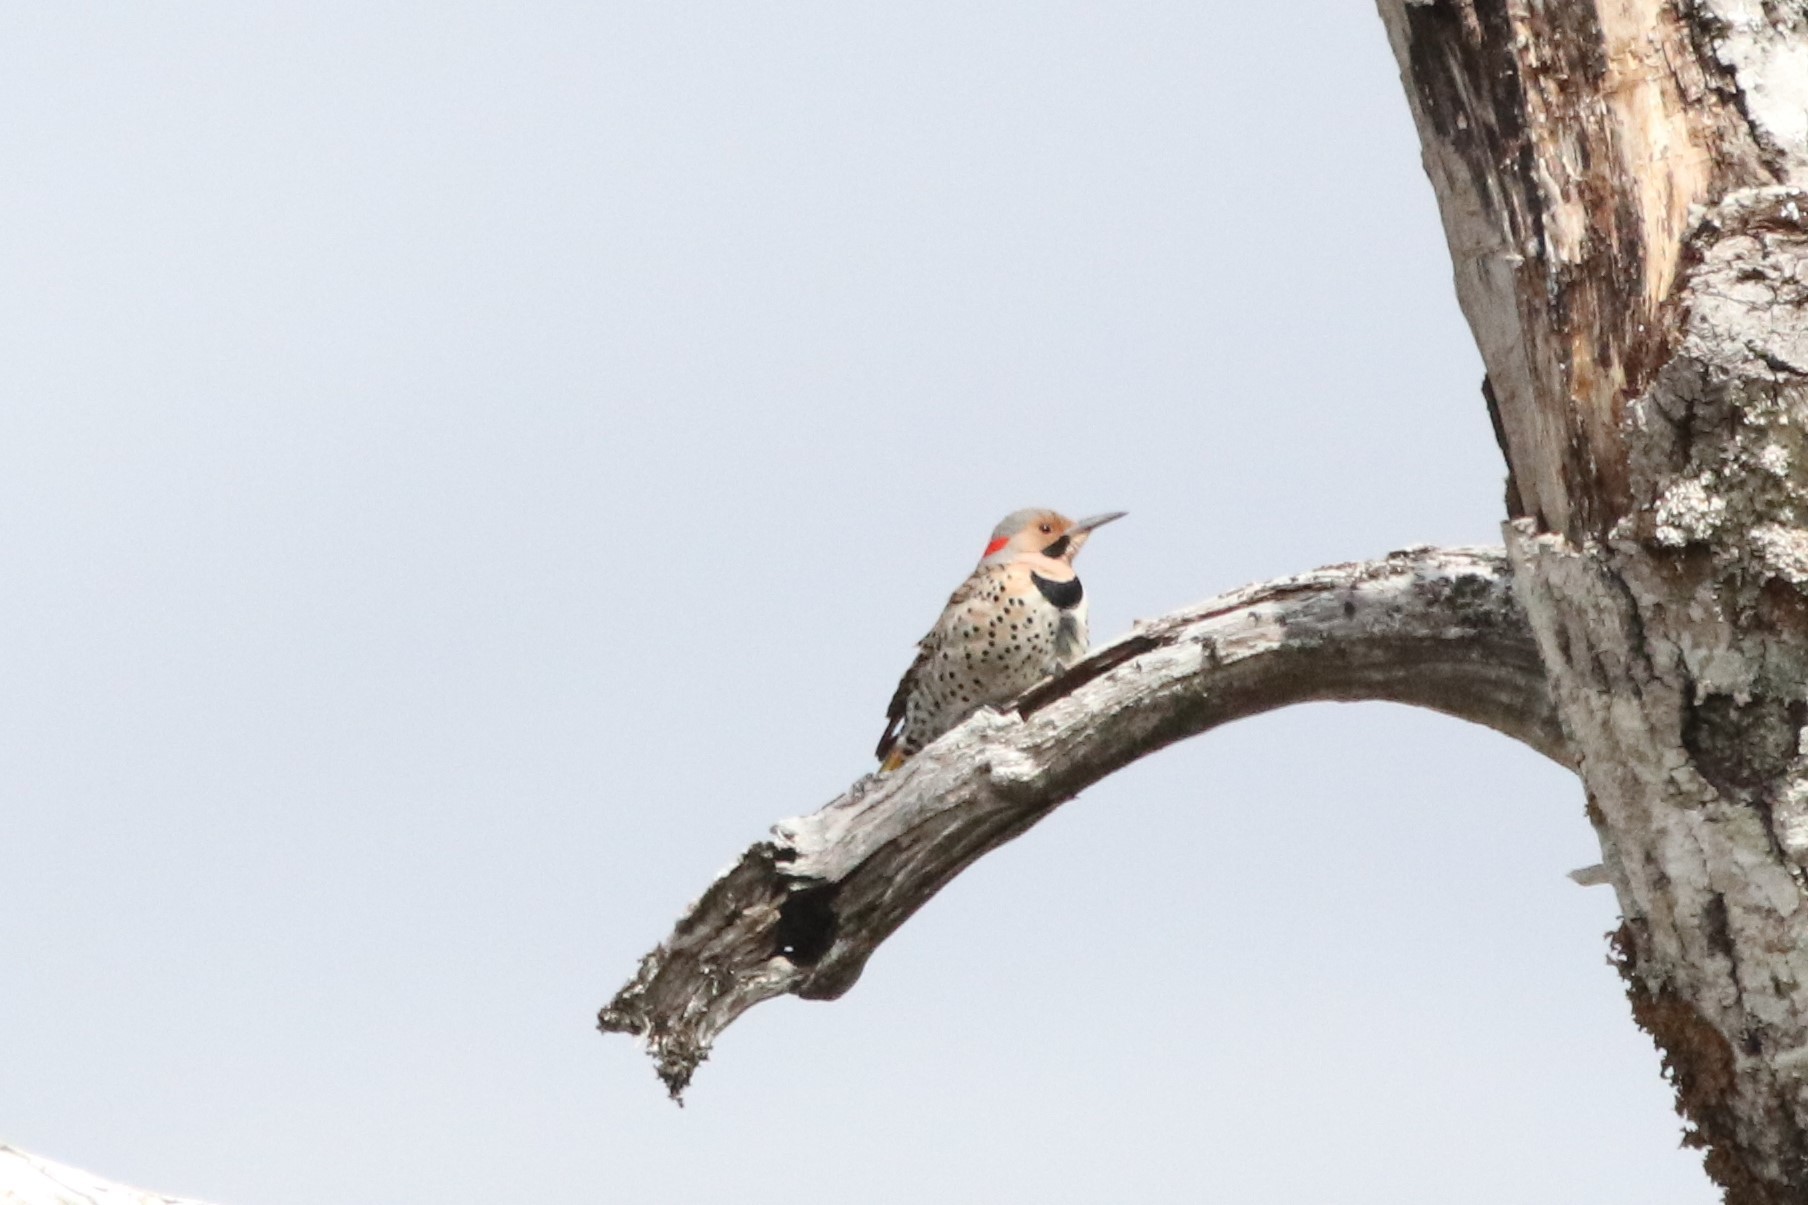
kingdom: Animalia
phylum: Chordata
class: Aves
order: Piciformes
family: Picidae
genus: Colaptes
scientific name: Colaptes auratus
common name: Northern flicker
